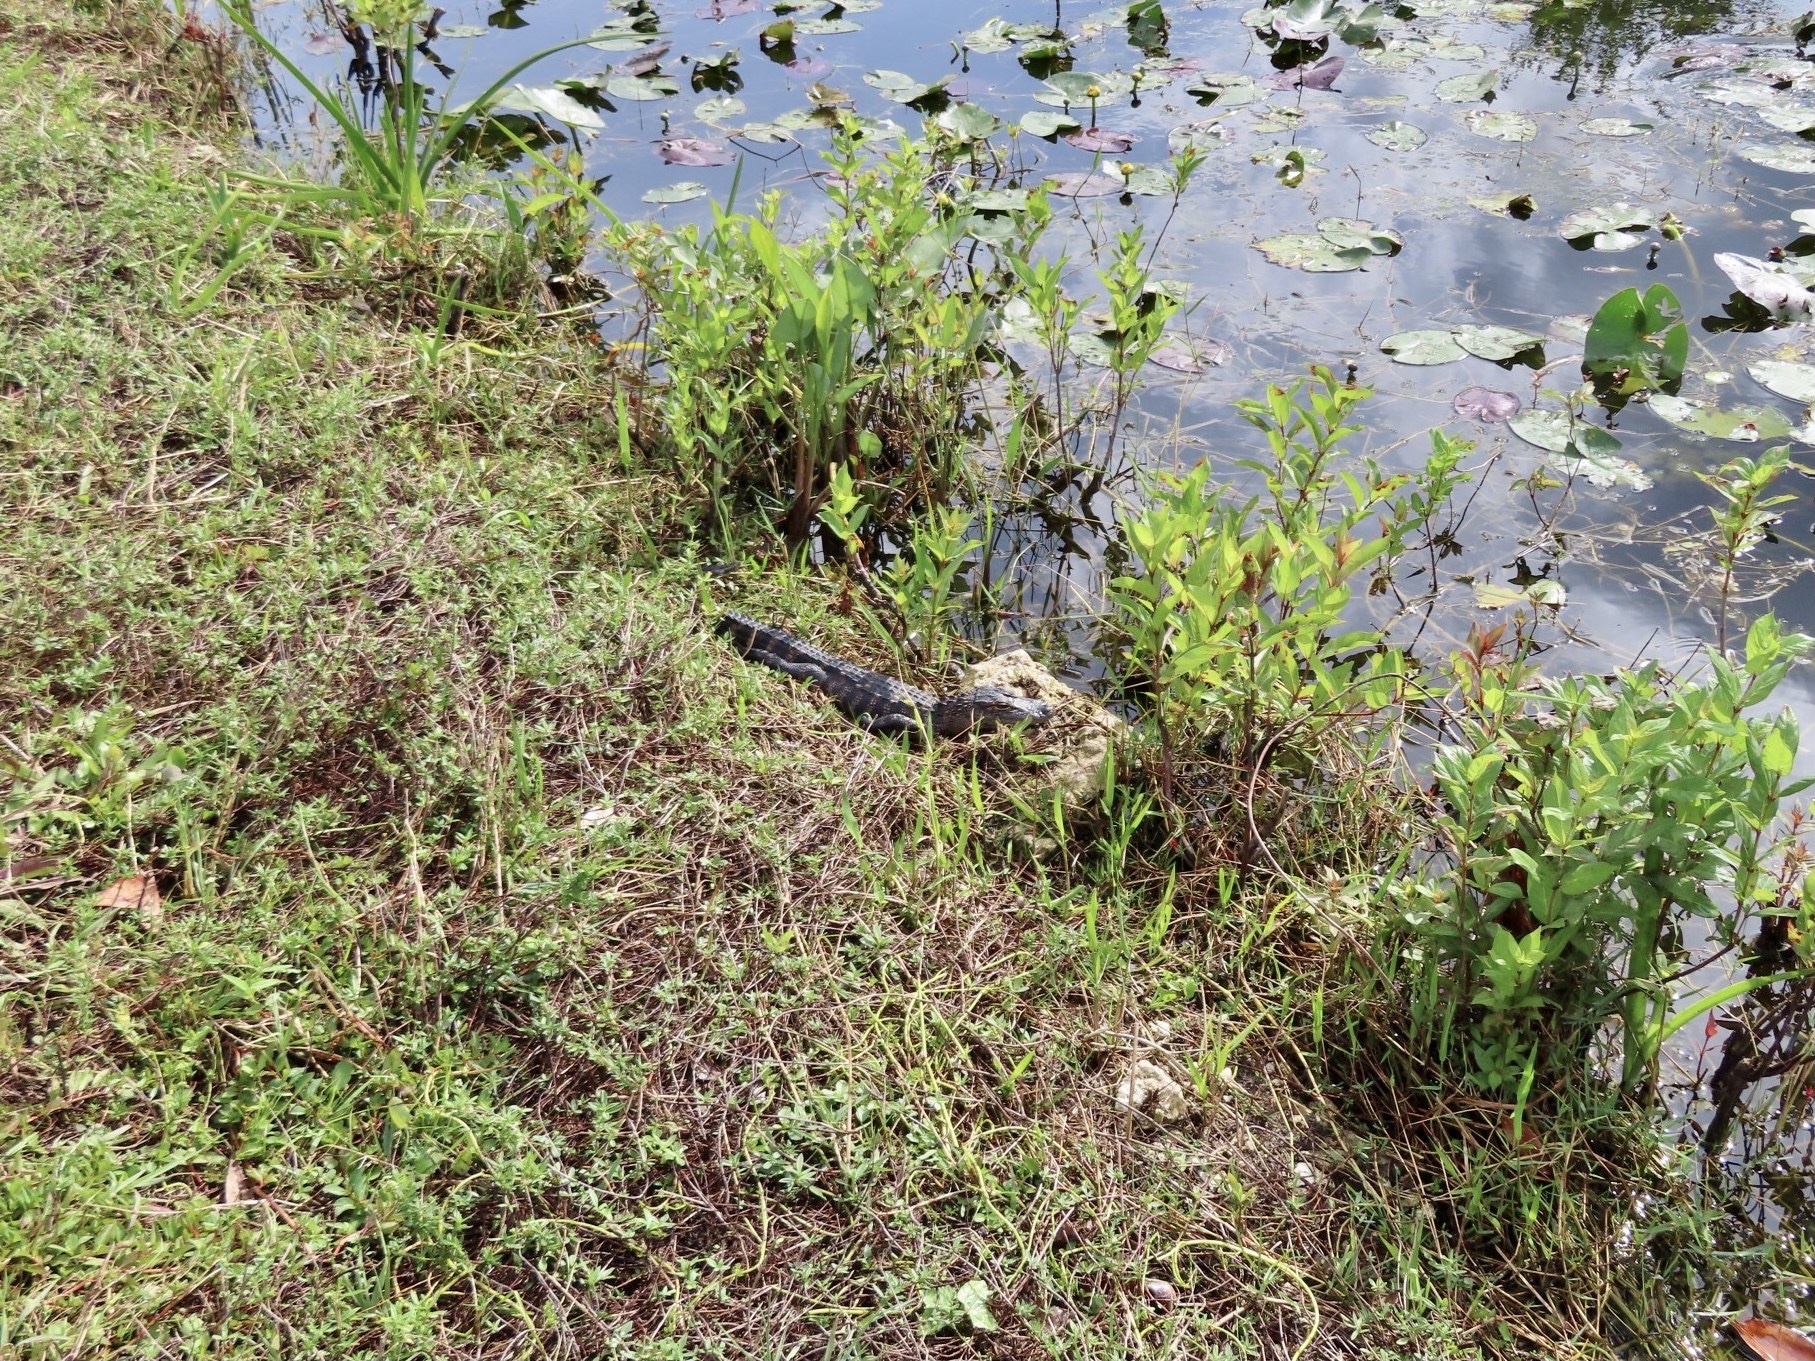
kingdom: Animalia
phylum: Chordata
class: Crocodylia
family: Alligatoridae
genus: Alligator
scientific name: Alligator mississippiensis
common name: American alligator
